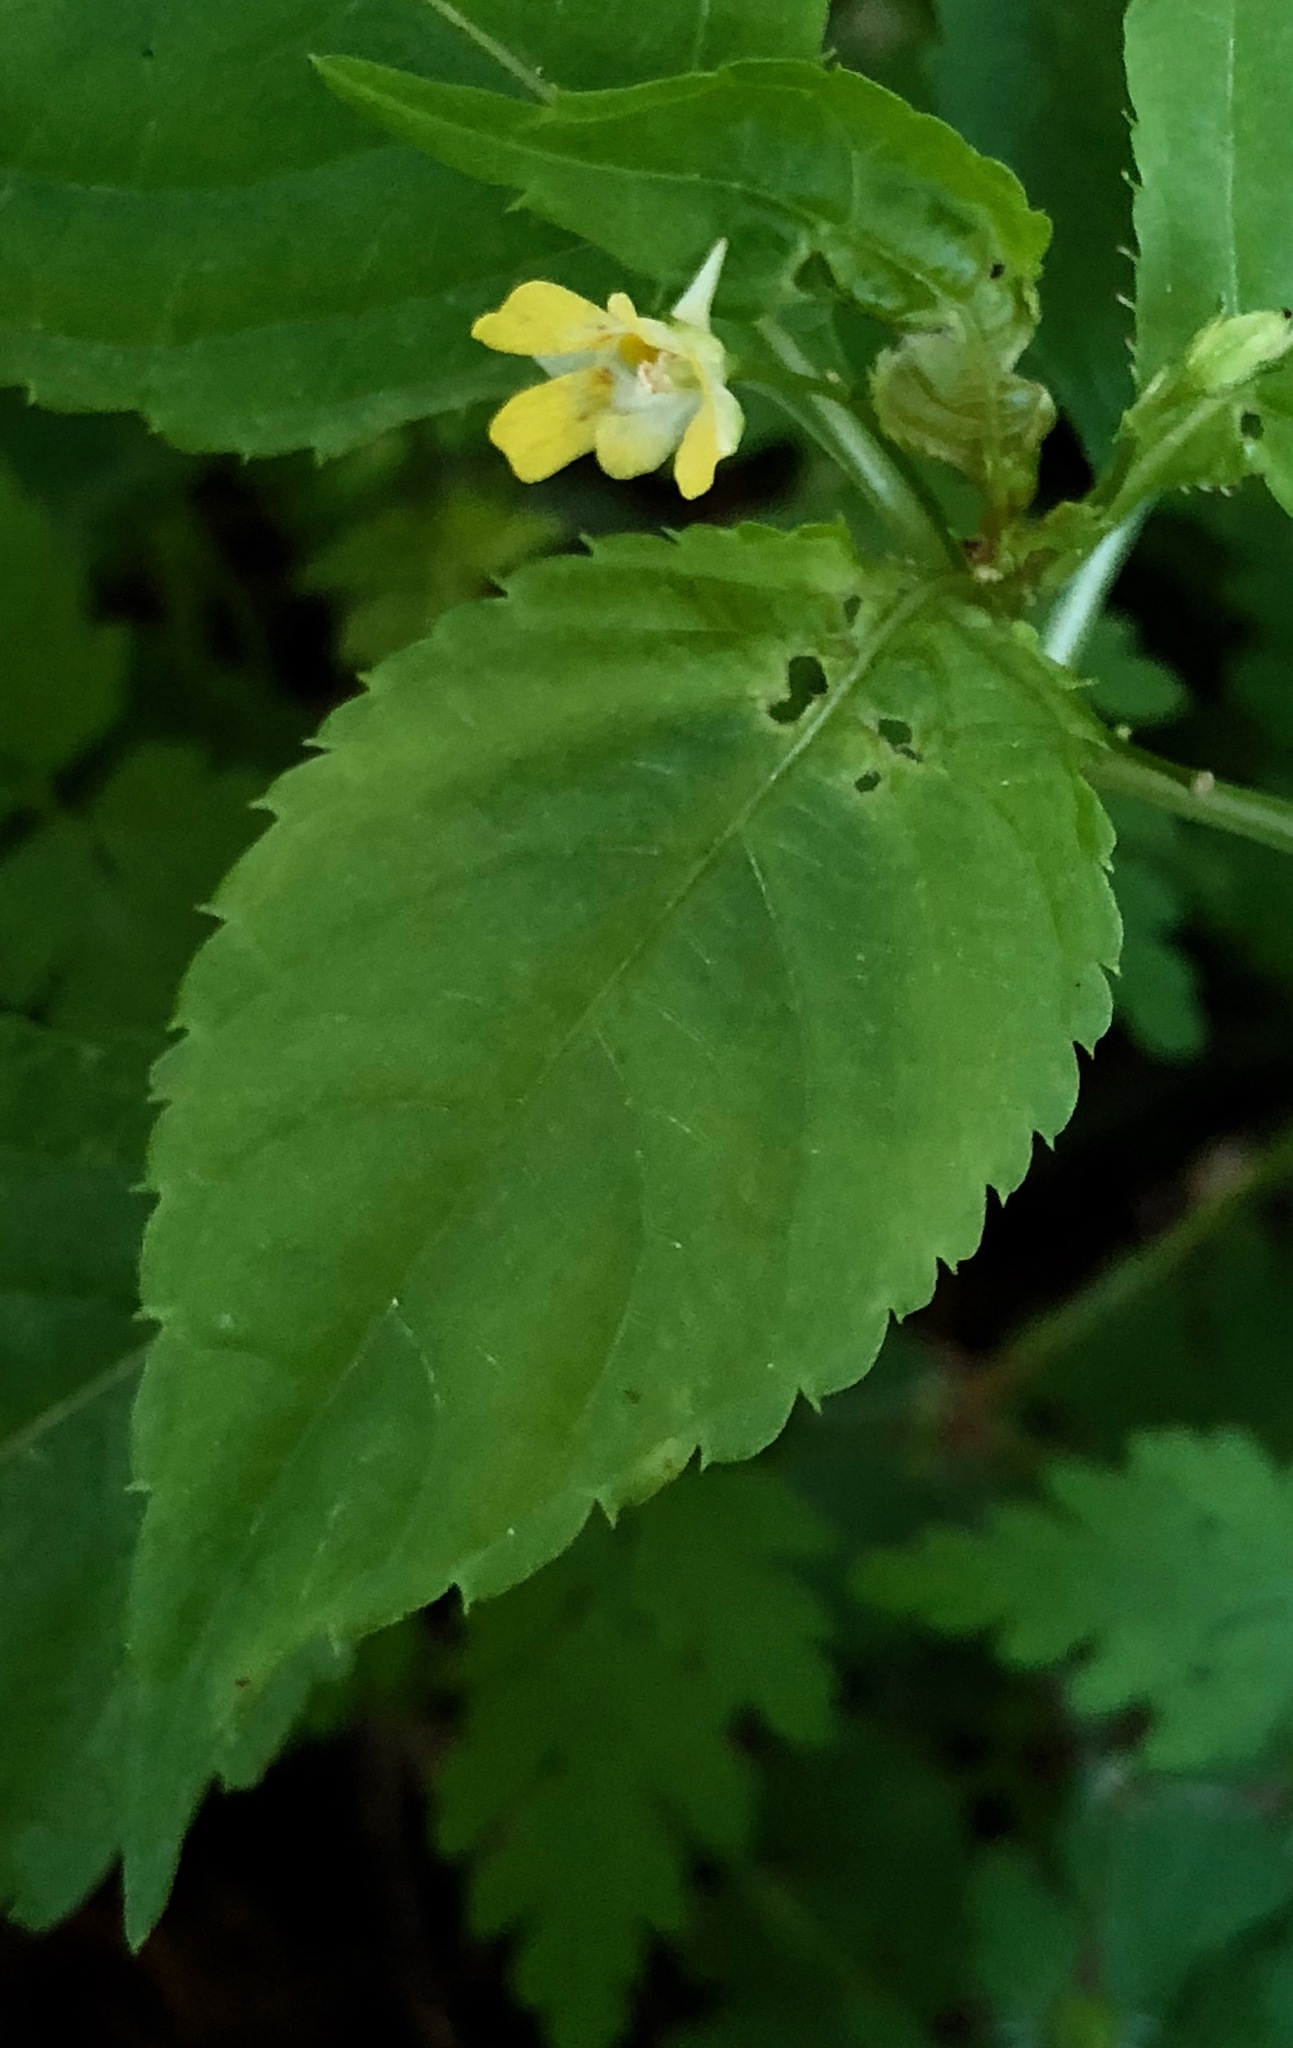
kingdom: Plantae
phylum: Tracheophyta
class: Magnoliopsida
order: Ericales
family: Balsaminaceae
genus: Impatiens
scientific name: Impatiens parviflora
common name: Small balsam
